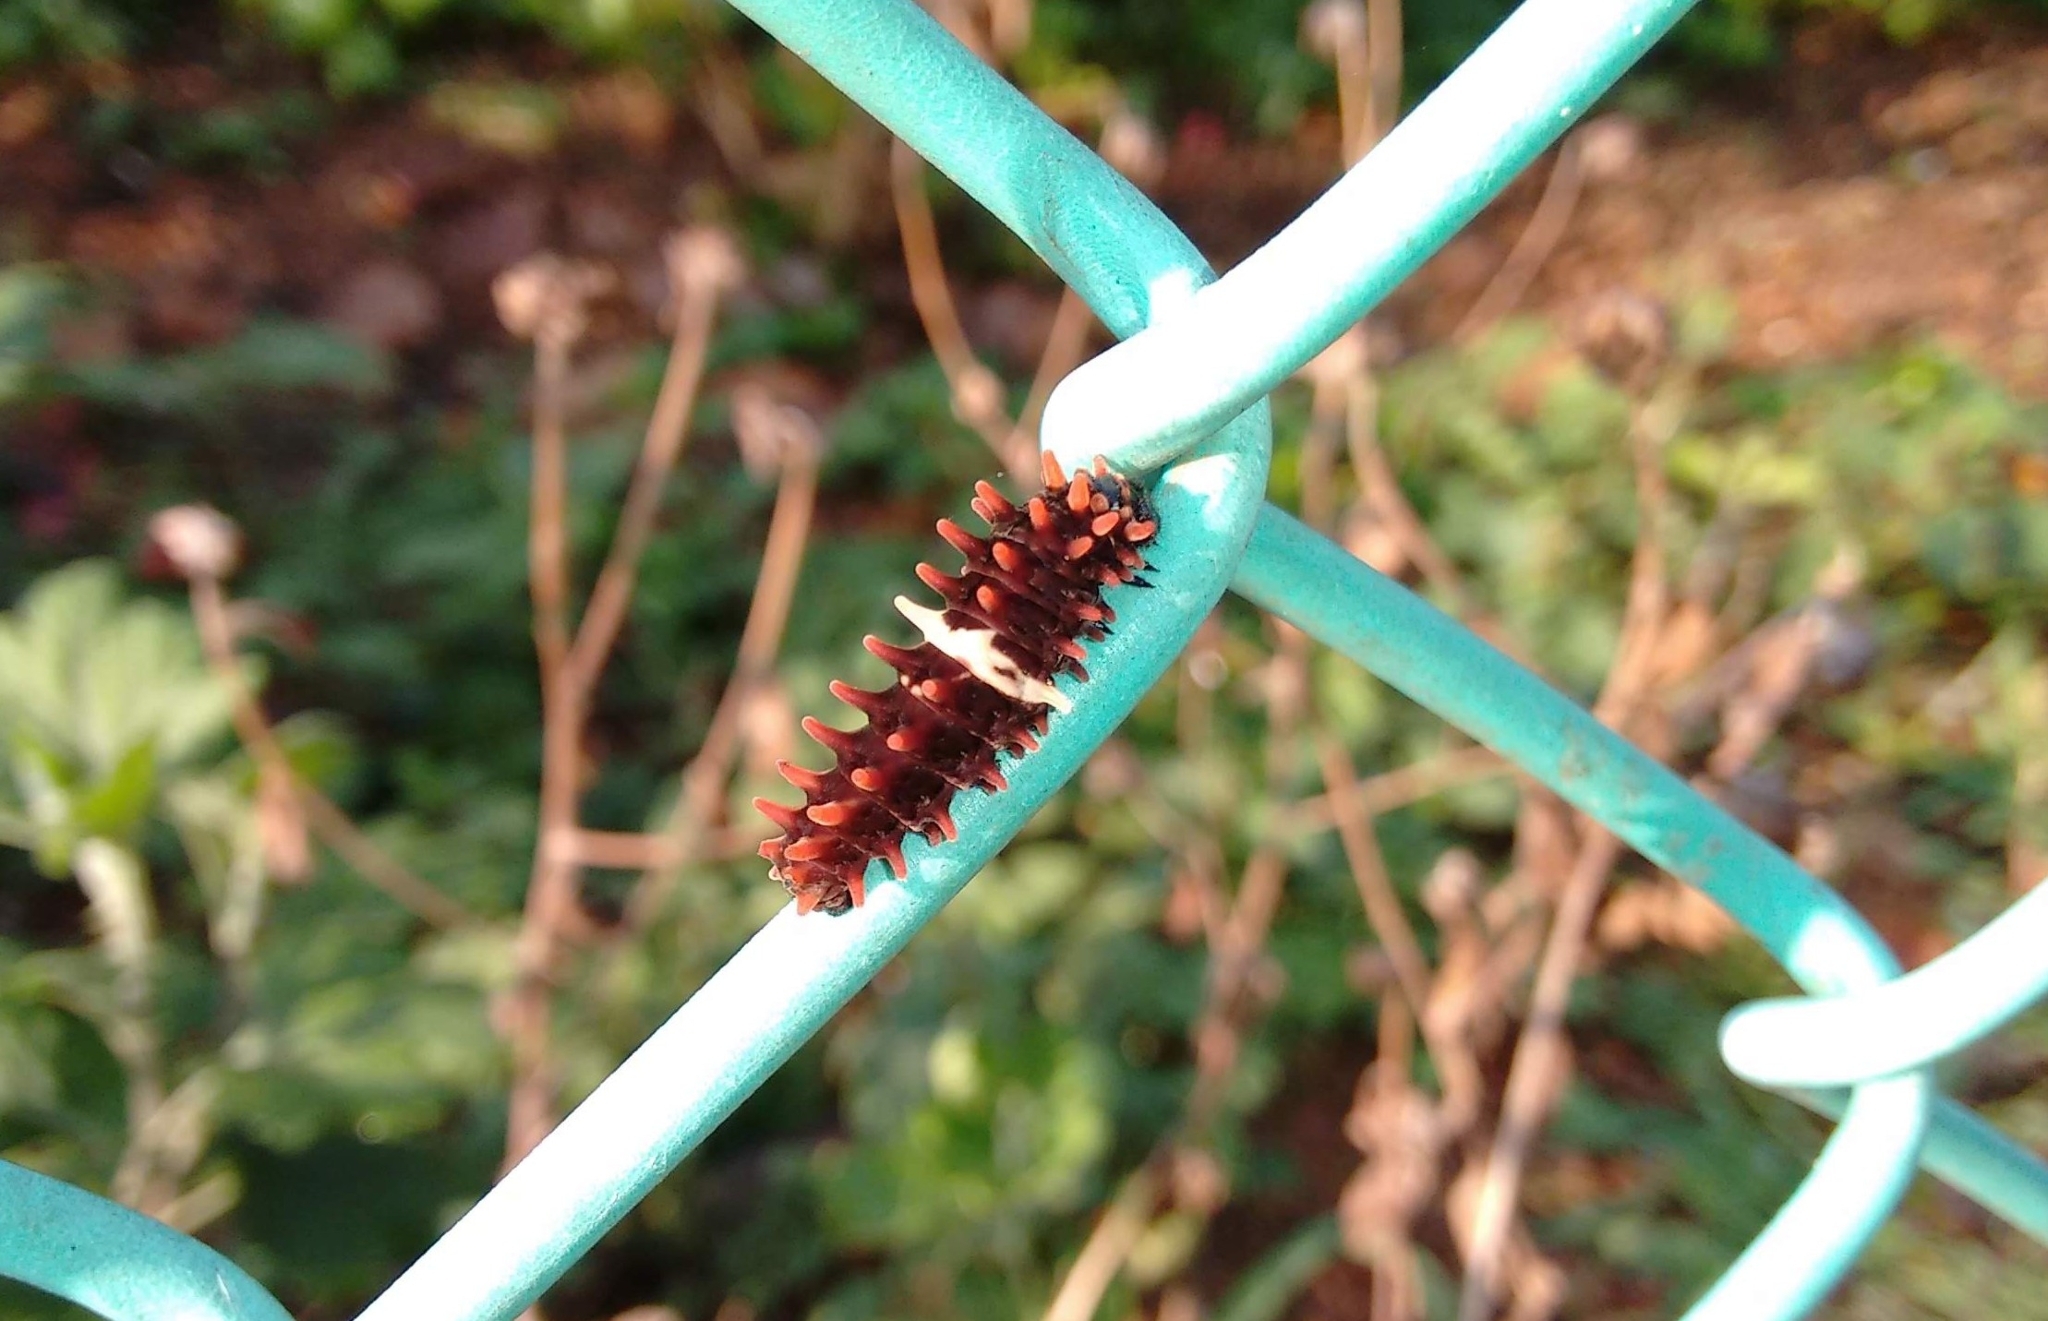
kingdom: Animalia
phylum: Arthropoda
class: Insecta
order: Lepidoptera
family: Papilionidae
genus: Pachliopta
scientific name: Pachliopta aristolochiae
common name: Common rose
